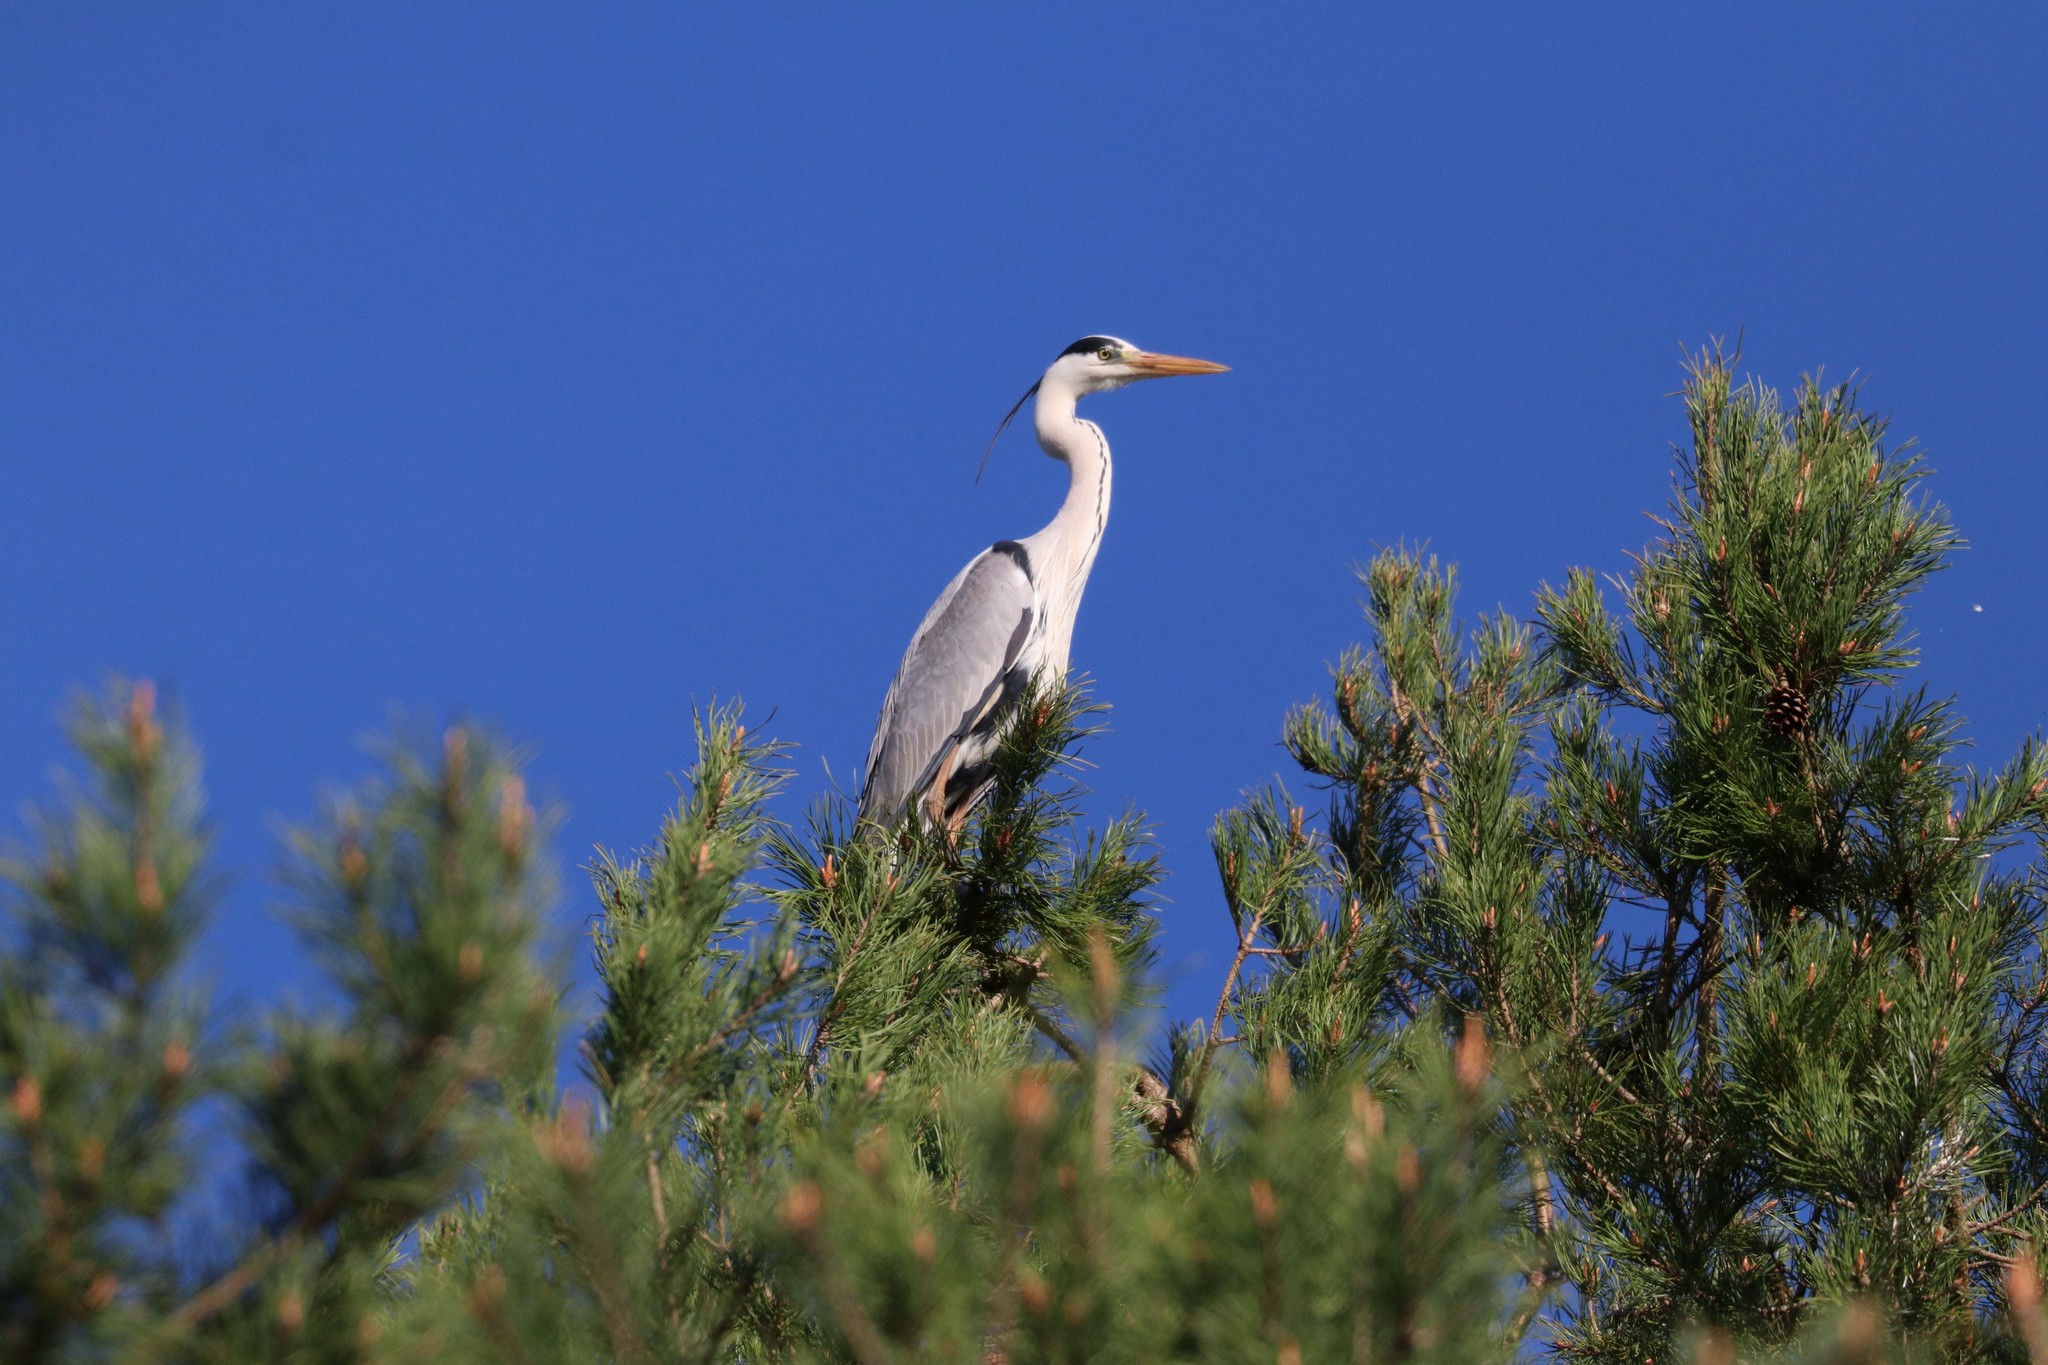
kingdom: Animalia
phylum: Chordata
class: Aves
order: Pelecaniformes
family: Ardeidae
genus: Ardea
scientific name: Ardea cinerea
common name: Grey heron
